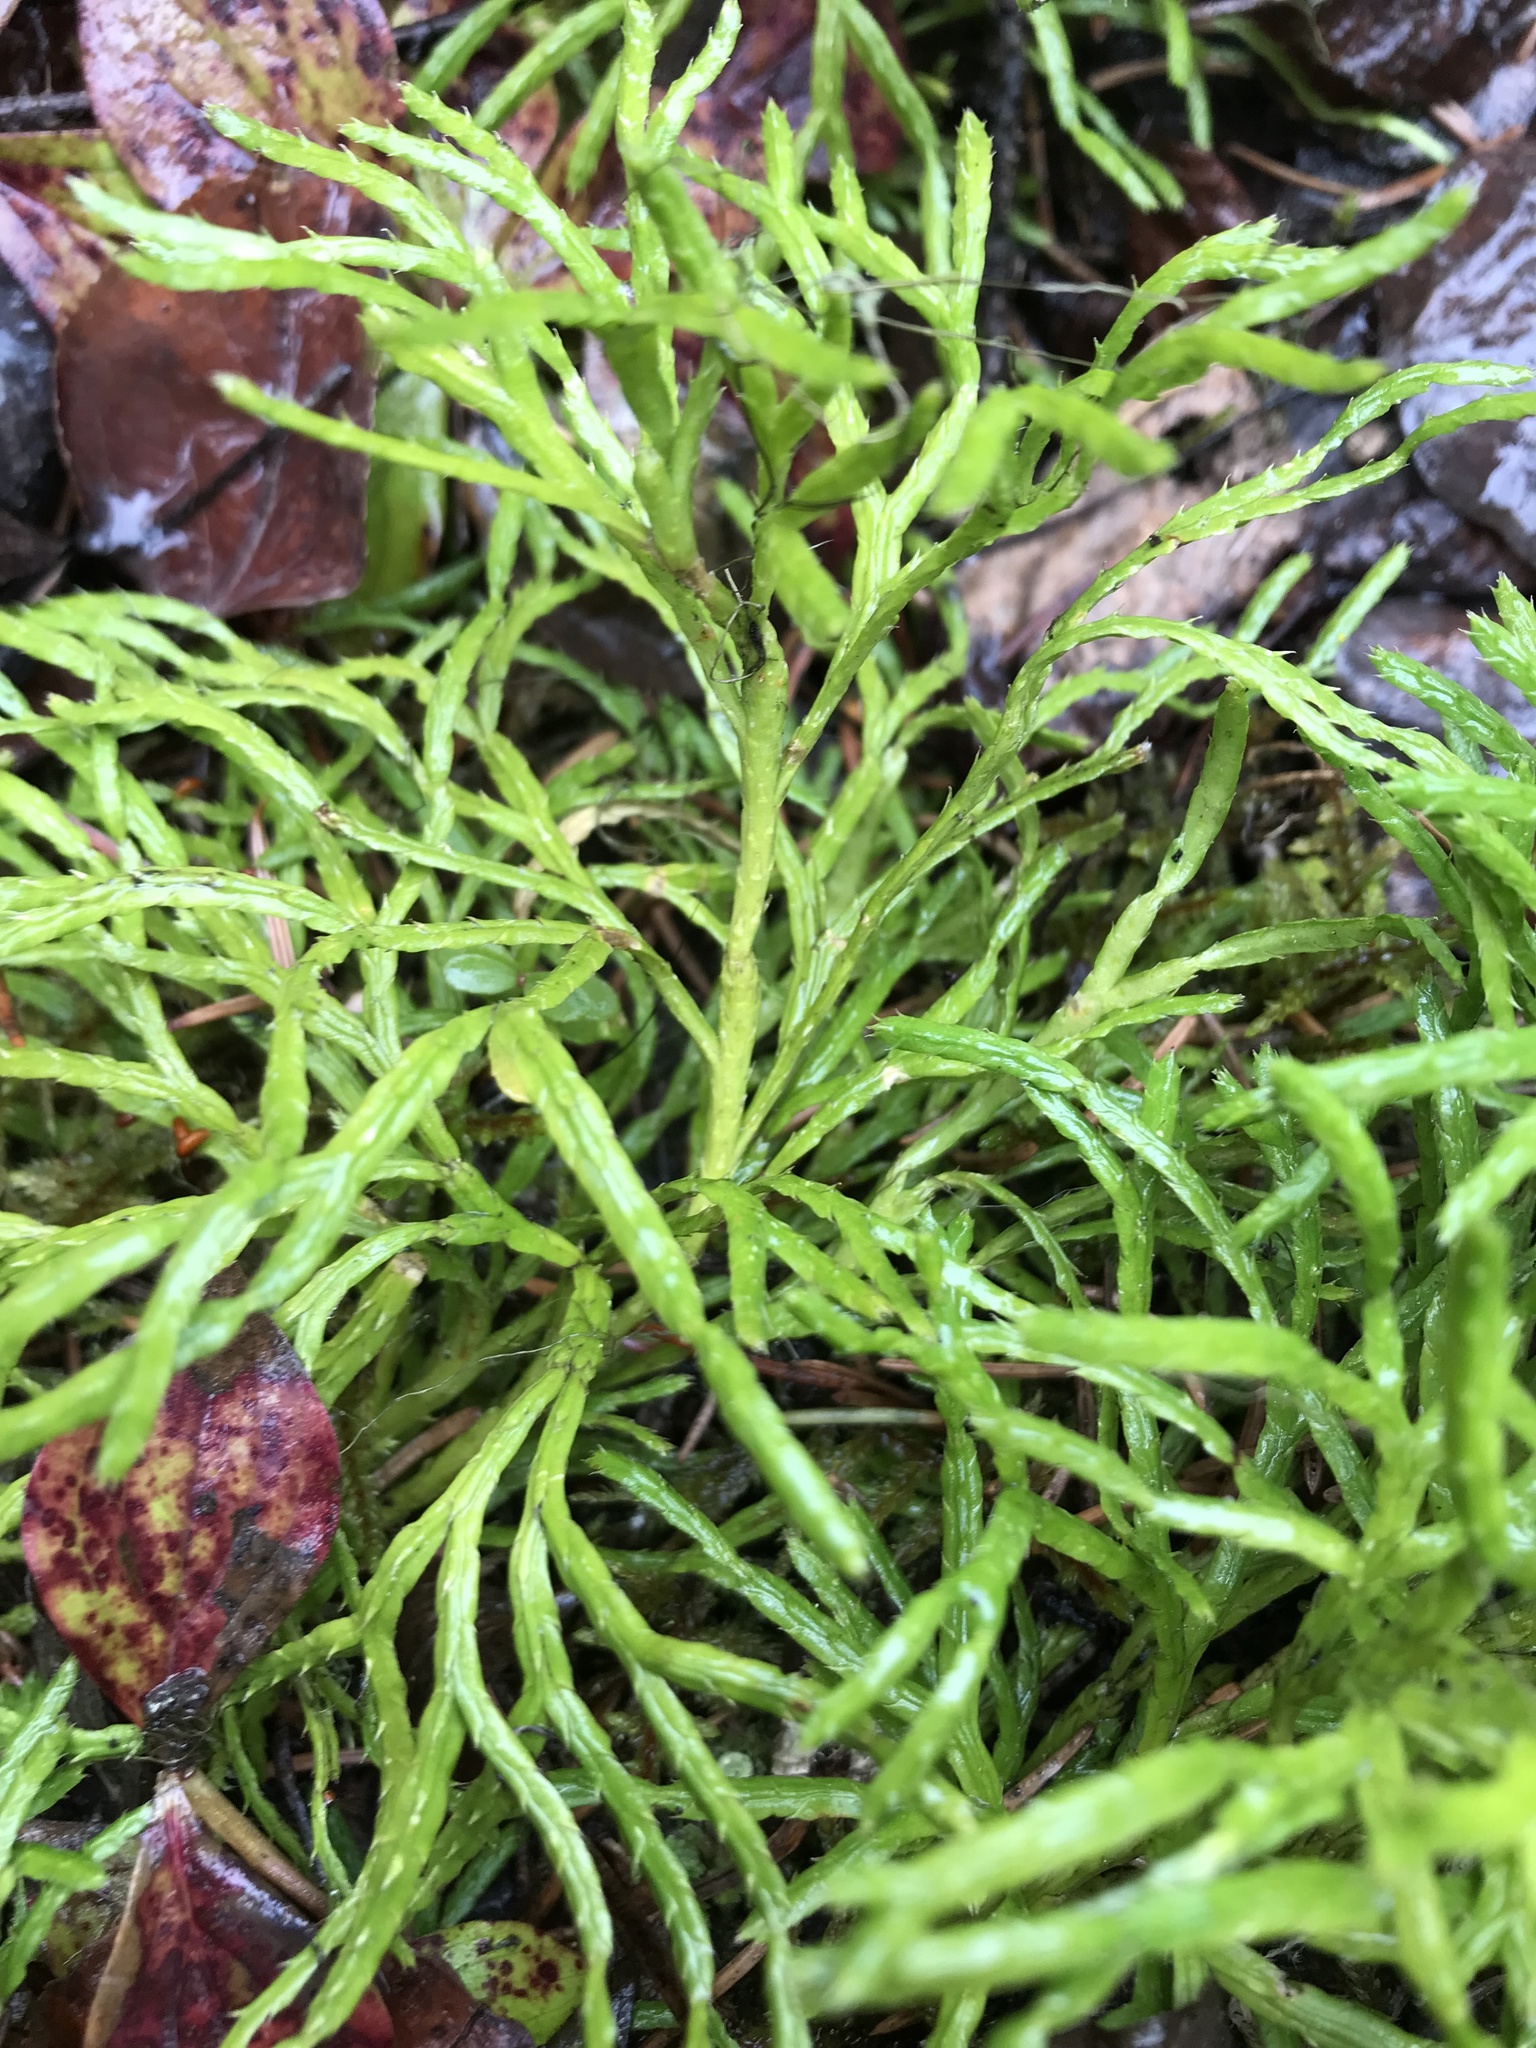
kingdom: Plantae
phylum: Tracheophyta
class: Lycopodiopsida
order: Lycopodiales
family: Lycopodiaceae
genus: Diphasiastrum
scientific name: Diphasiastrum complanatum
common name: Northern running-pine
